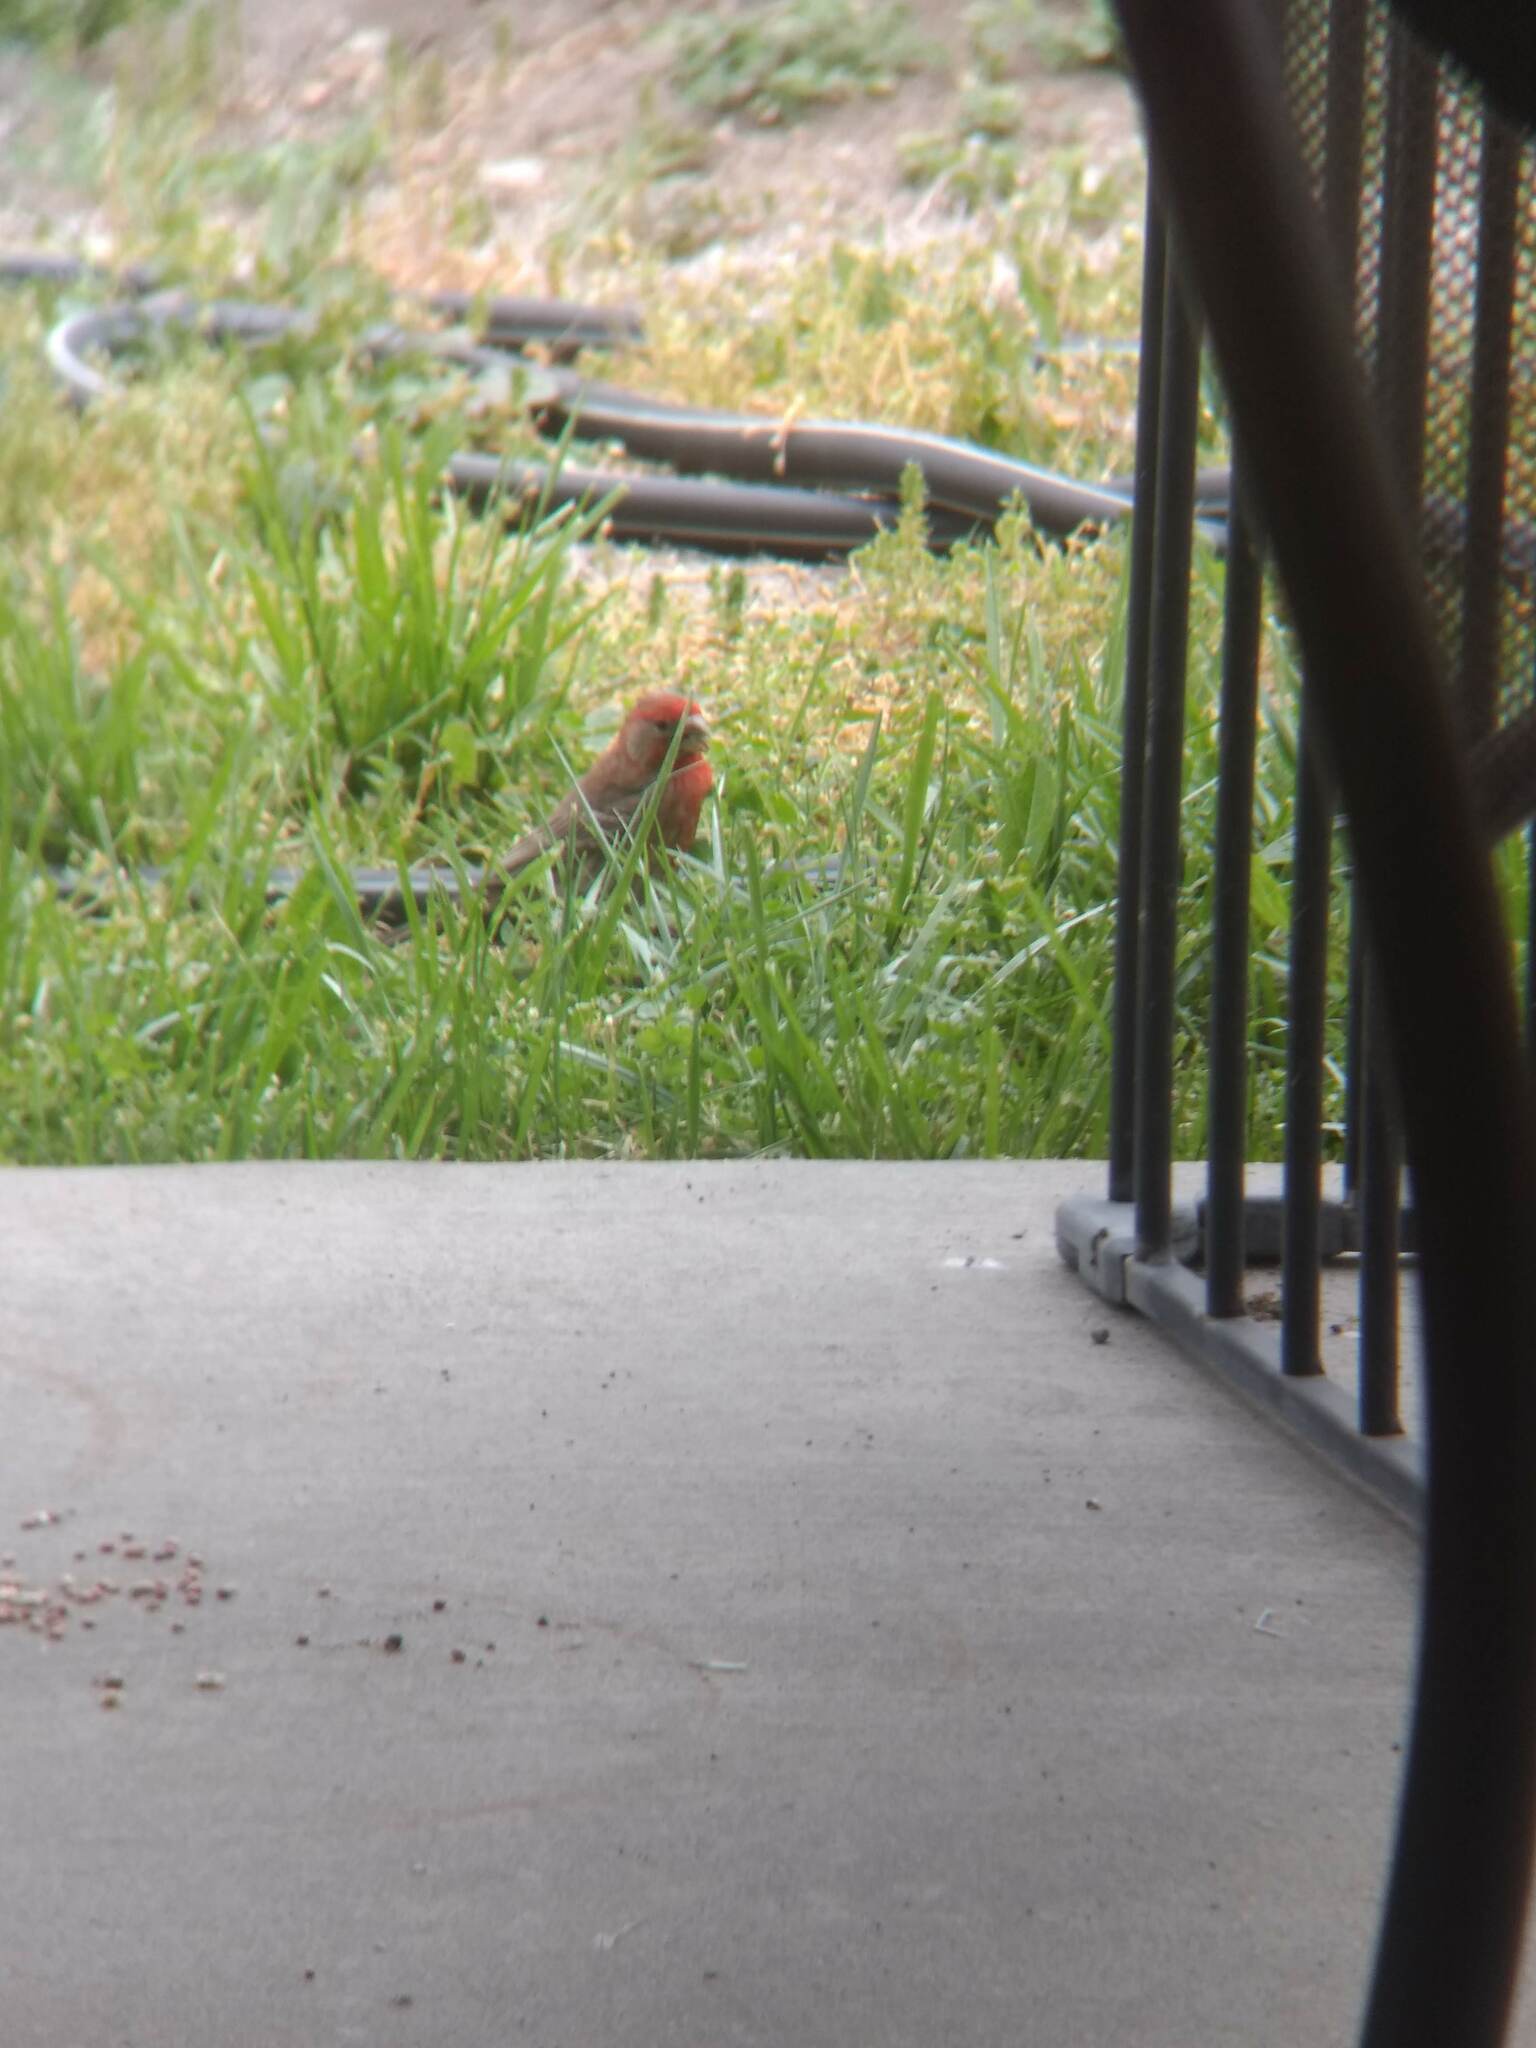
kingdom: Animalia
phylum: Chordata
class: Aves
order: Passeriformes
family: Fringillidae
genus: Haemorhous
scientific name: Haemorhous mexicanus
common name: House finch
